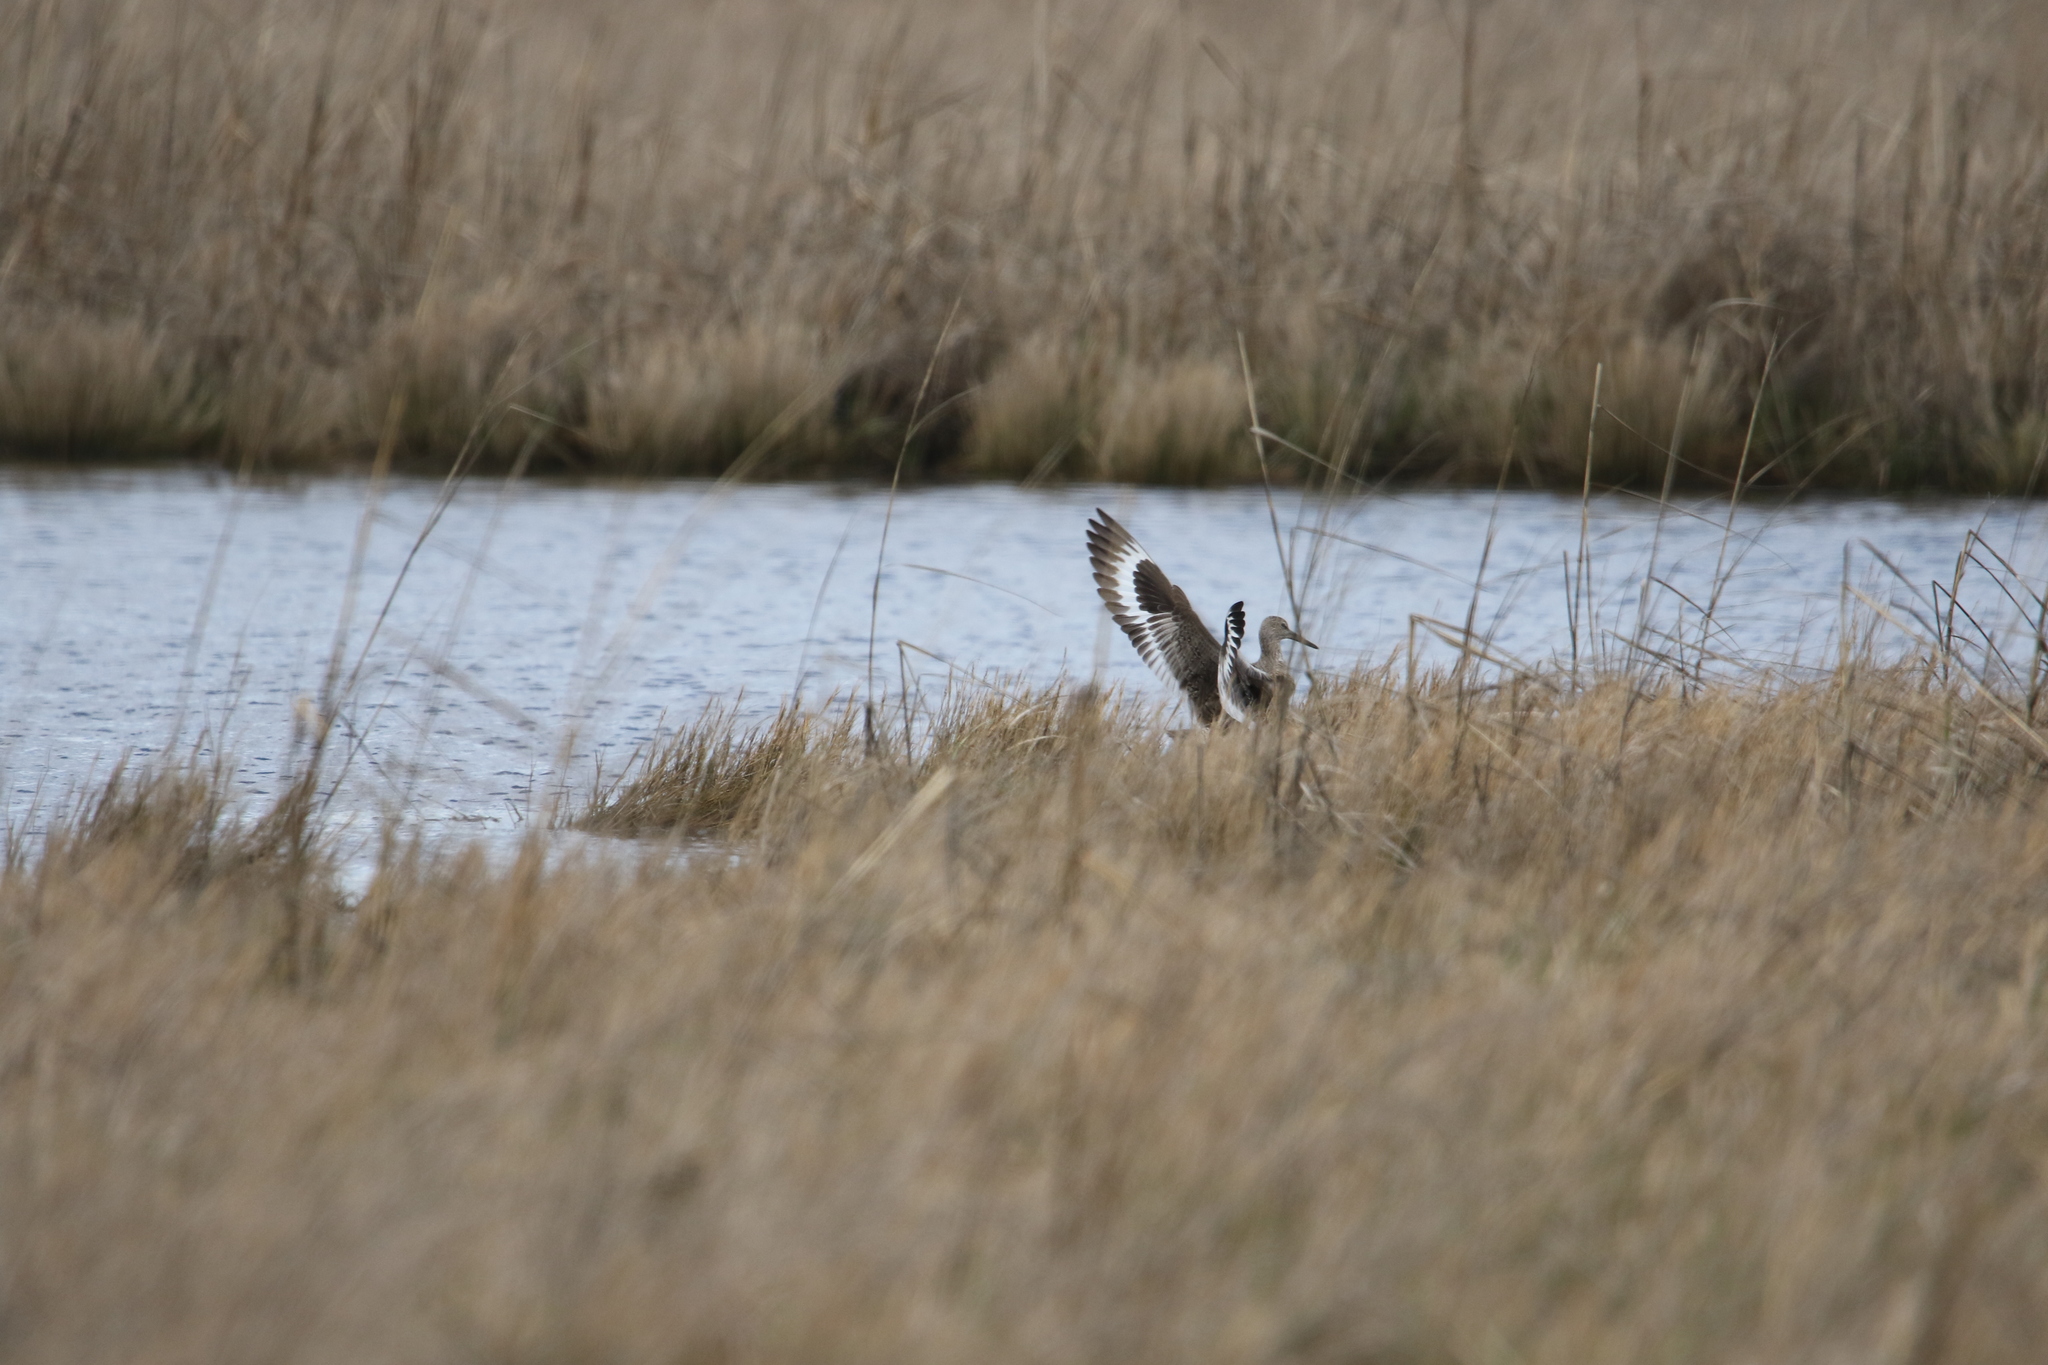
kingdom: Animalia
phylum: Chordata
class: Aves
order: Charadriiformes
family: Scolopacidae
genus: Tringa
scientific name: Tringa semipalmata
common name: Willet
